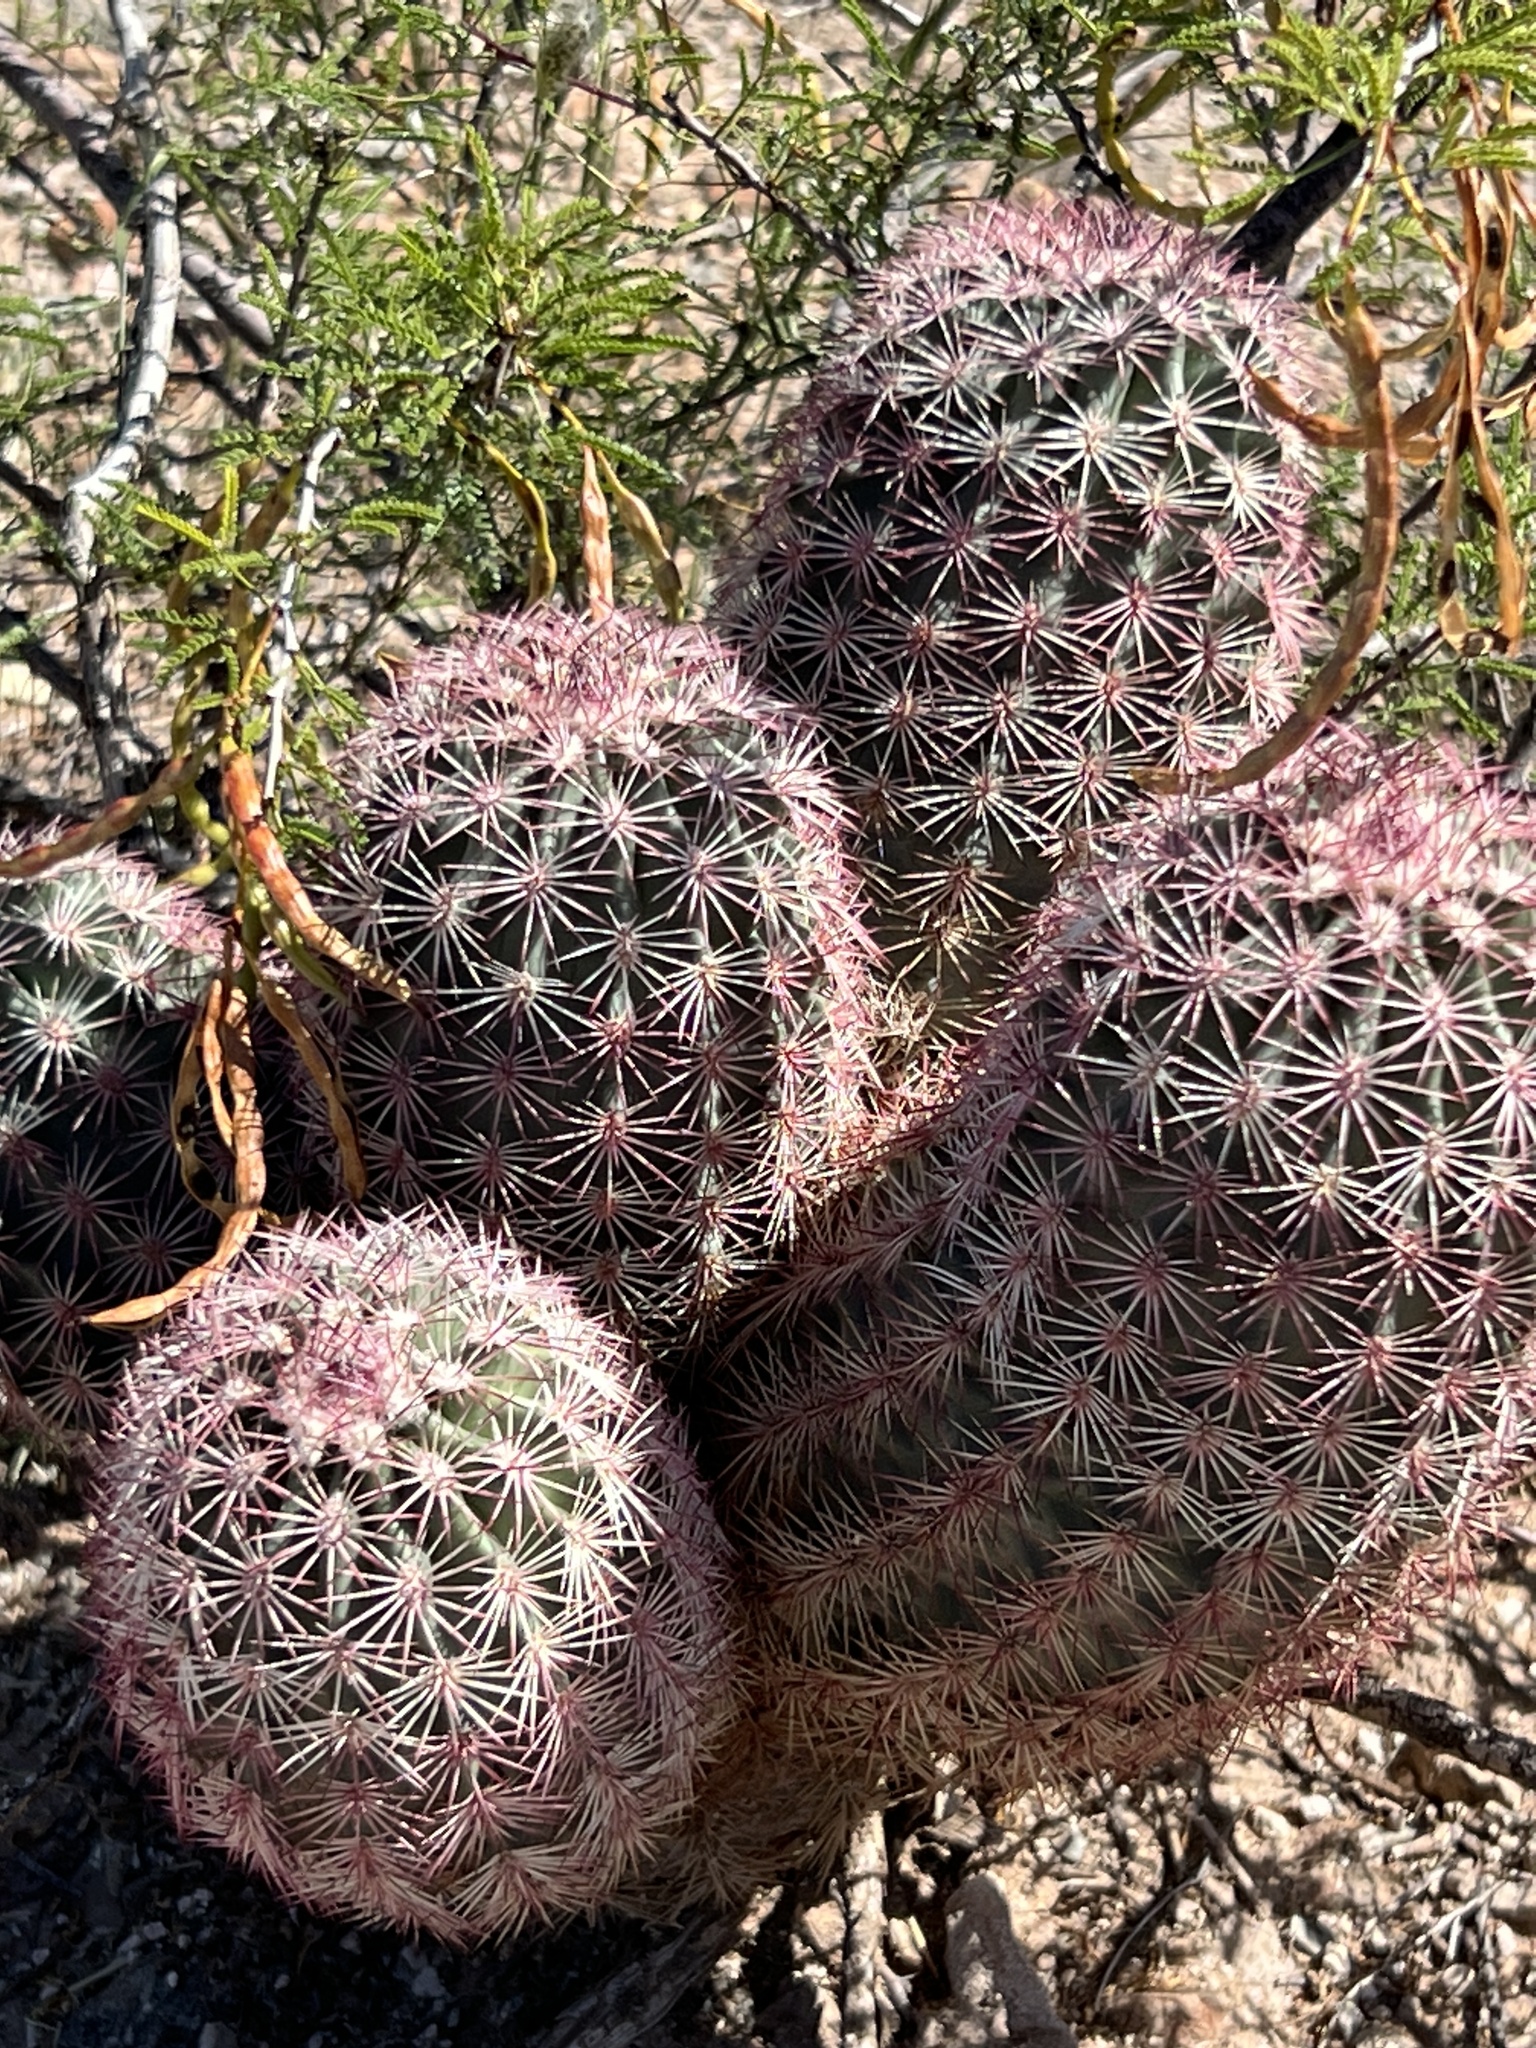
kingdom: Plantae
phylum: Tracheophyta
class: Magnoliopsida
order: Caryophyllales
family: Cactaceae
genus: Echinocereus
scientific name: Echinocereus dasyacanthus
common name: Spiny hedgehog cactus
